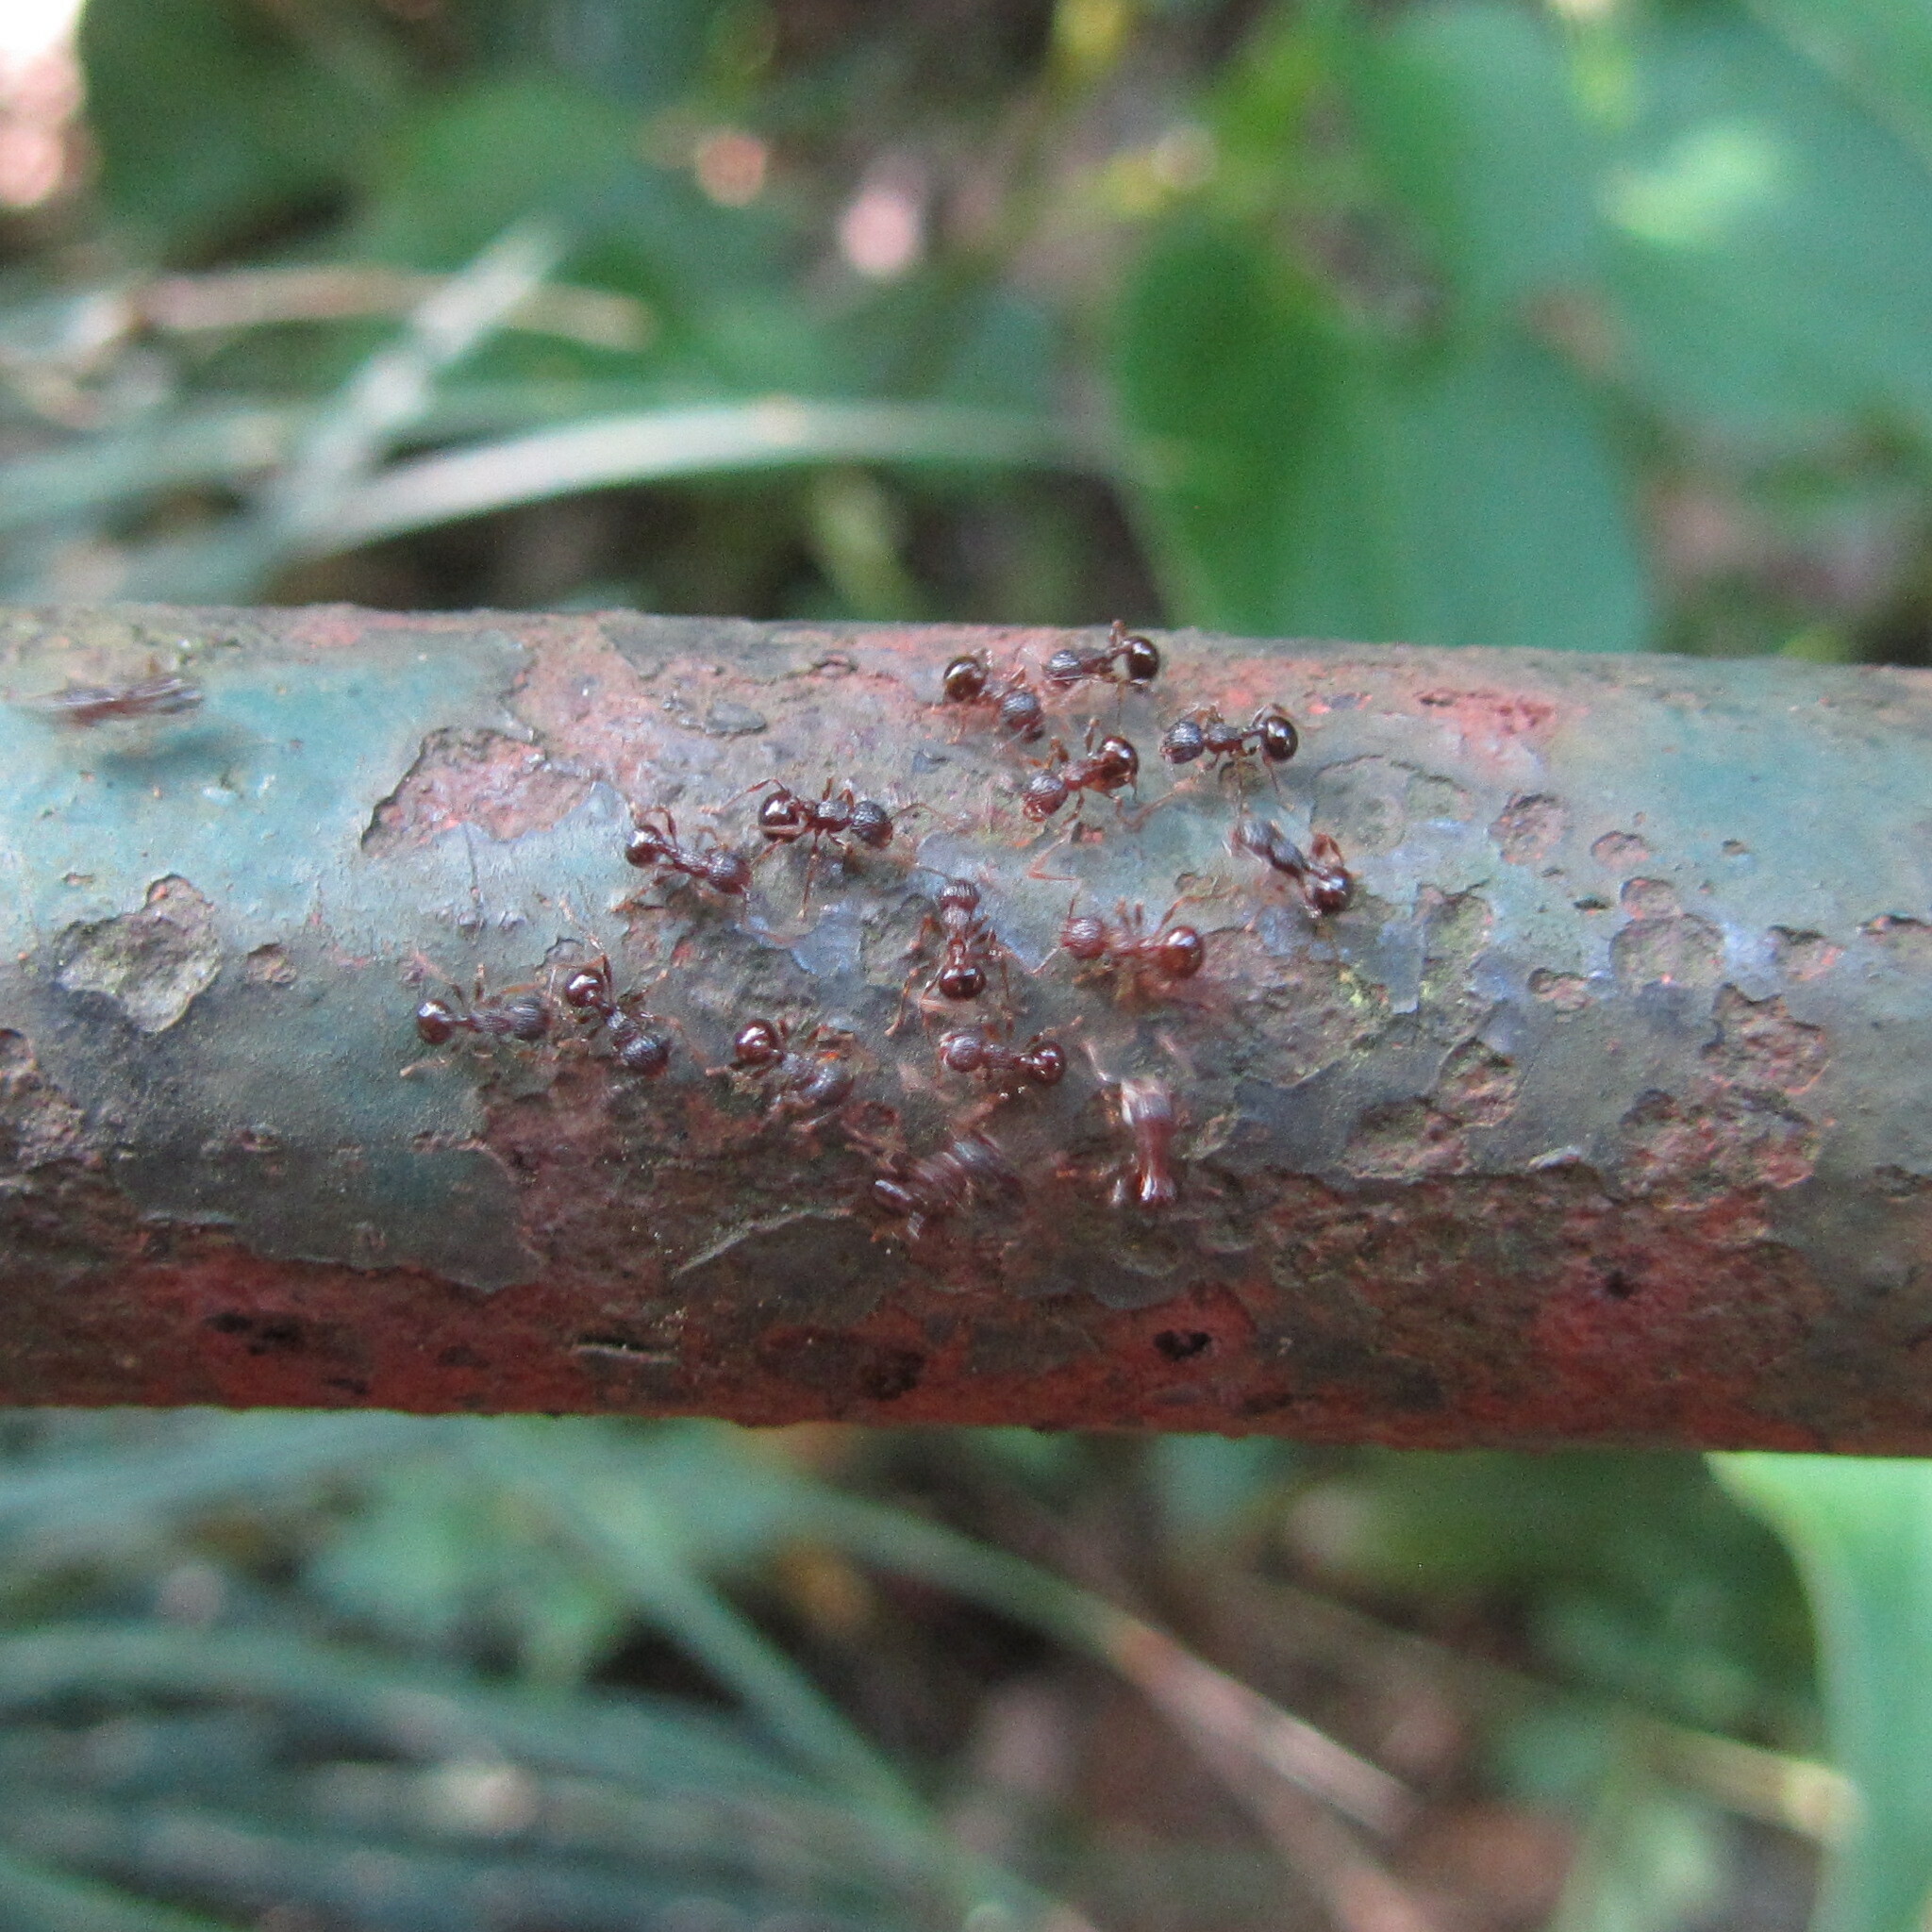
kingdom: Animalia
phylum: Arthropoda
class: Insecta
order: Hymenoptera
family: Formicidae
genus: Pristomyrmex
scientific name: Pristomyrmex punctatus
